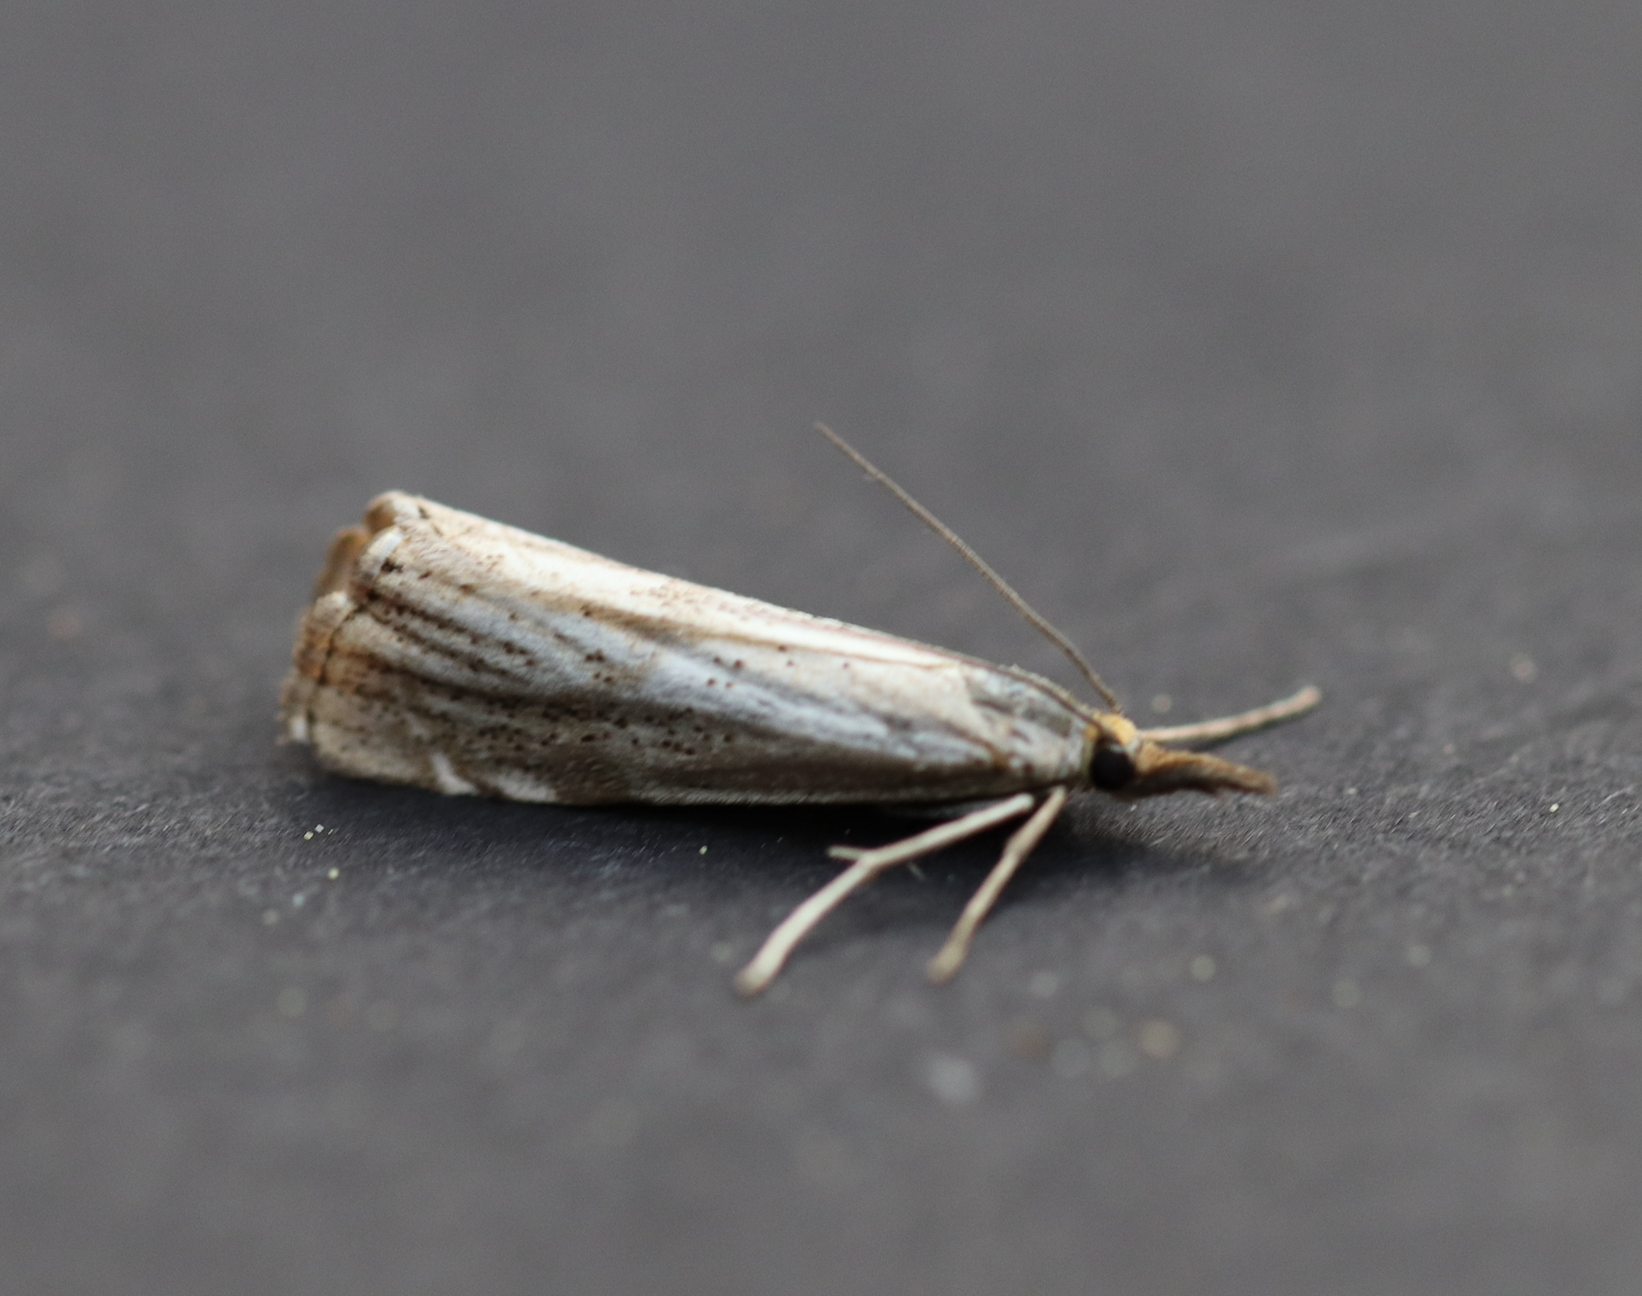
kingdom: Animalia
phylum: Arthropoda
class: Insecta
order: Lepidoptera
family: Crambidae
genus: Thisanotia
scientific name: Thisanotia chrysonuchella
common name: Powdered grass-veneer
